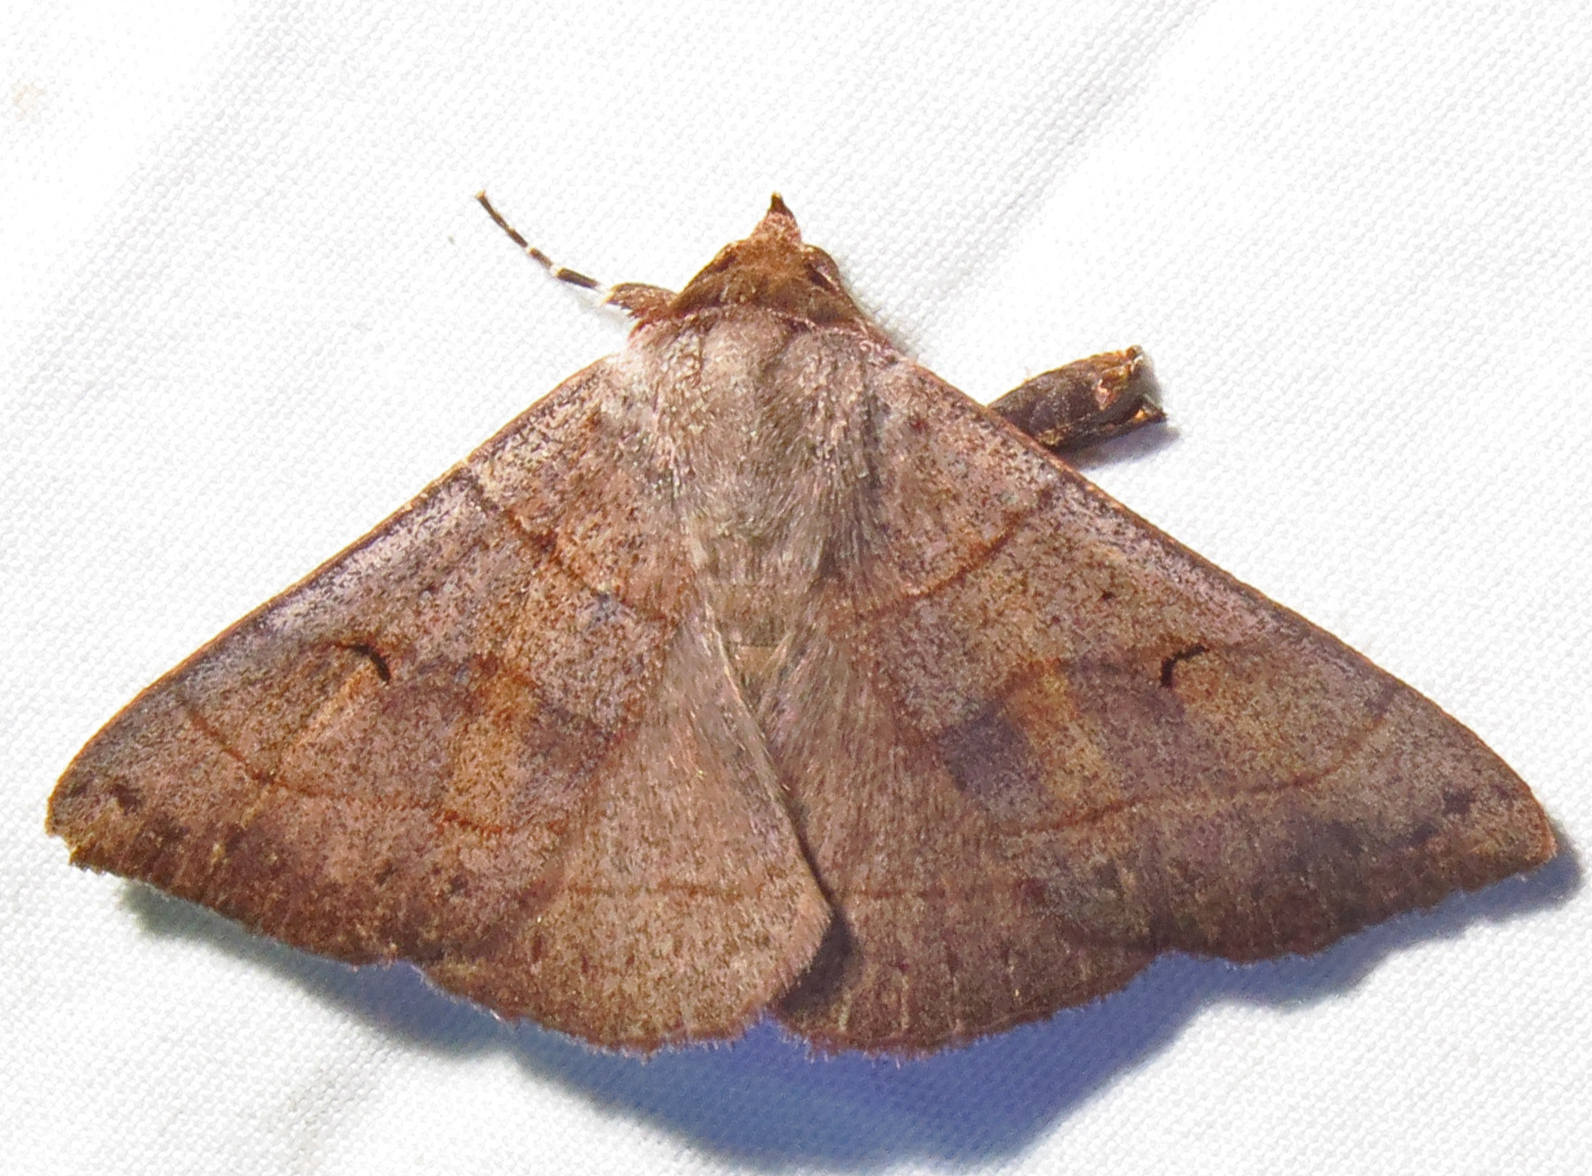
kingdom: Animalia
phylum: Arthropoda
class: Insecta
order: Lepidoptera
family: Erebidae
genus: Panopoda
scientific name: Panopoda rufimargo
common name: Red-lined panopoda moth
